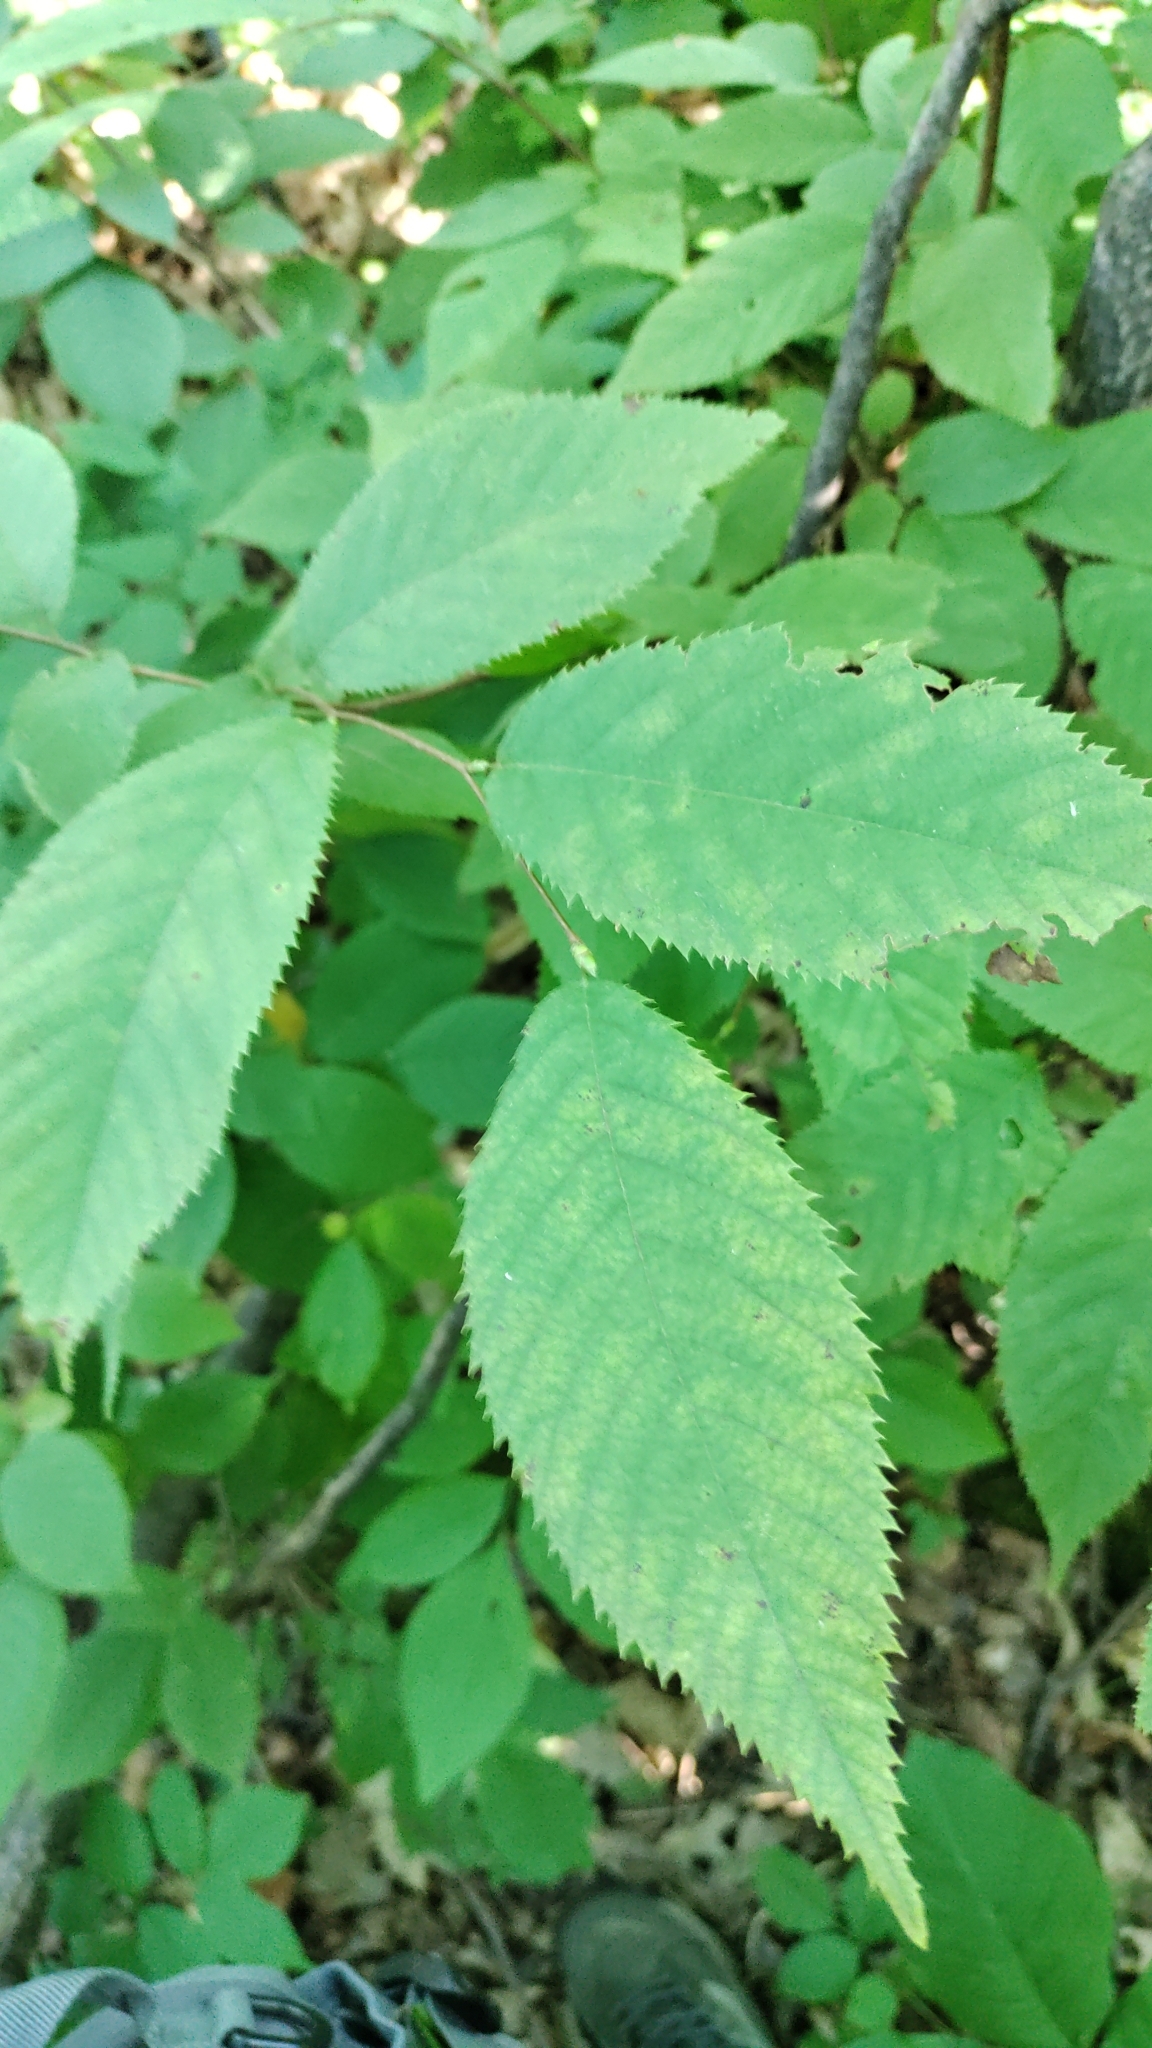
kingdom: Plantae
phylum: Tracheophyta
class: Magnoliopsida
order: Fagales
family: Betulaceae
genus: Ostrya
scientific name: Ostrya virginiana
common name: Ironwood
